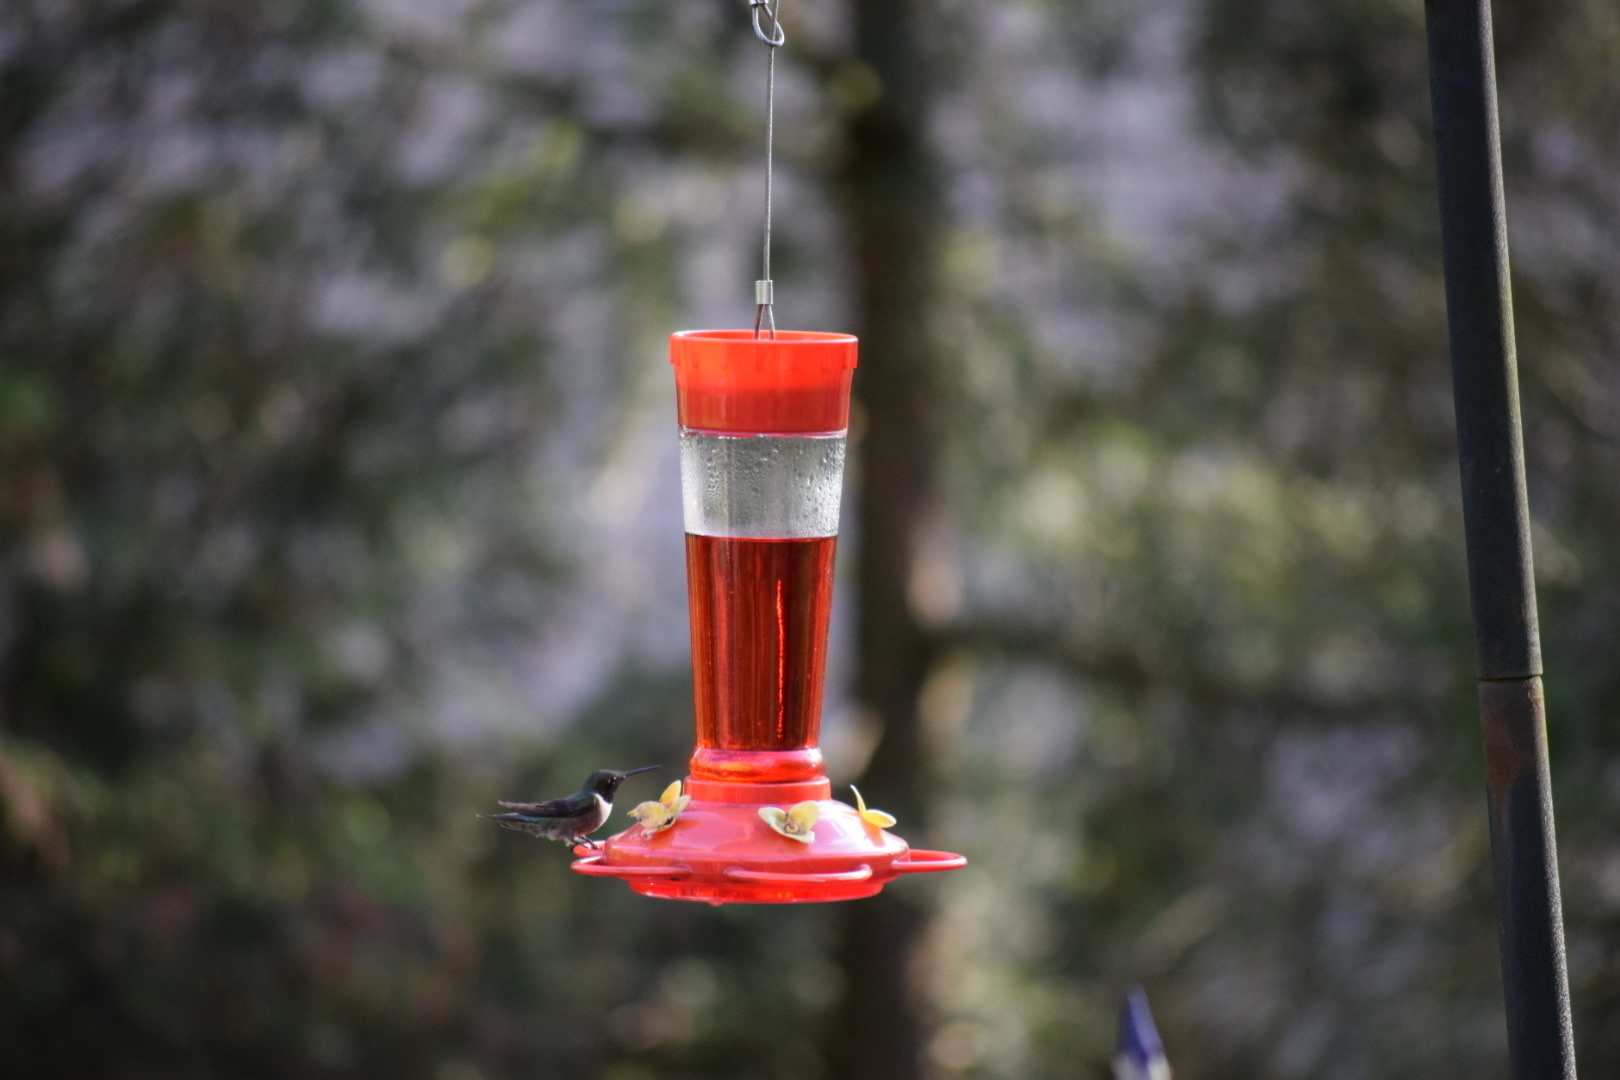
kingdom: Animalia
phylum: Chordata
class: Aves
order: Apodiformes
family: Trochilidae
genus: Archilochus
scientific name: Archilochus colubris
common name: Ruby-throated hummingbird
